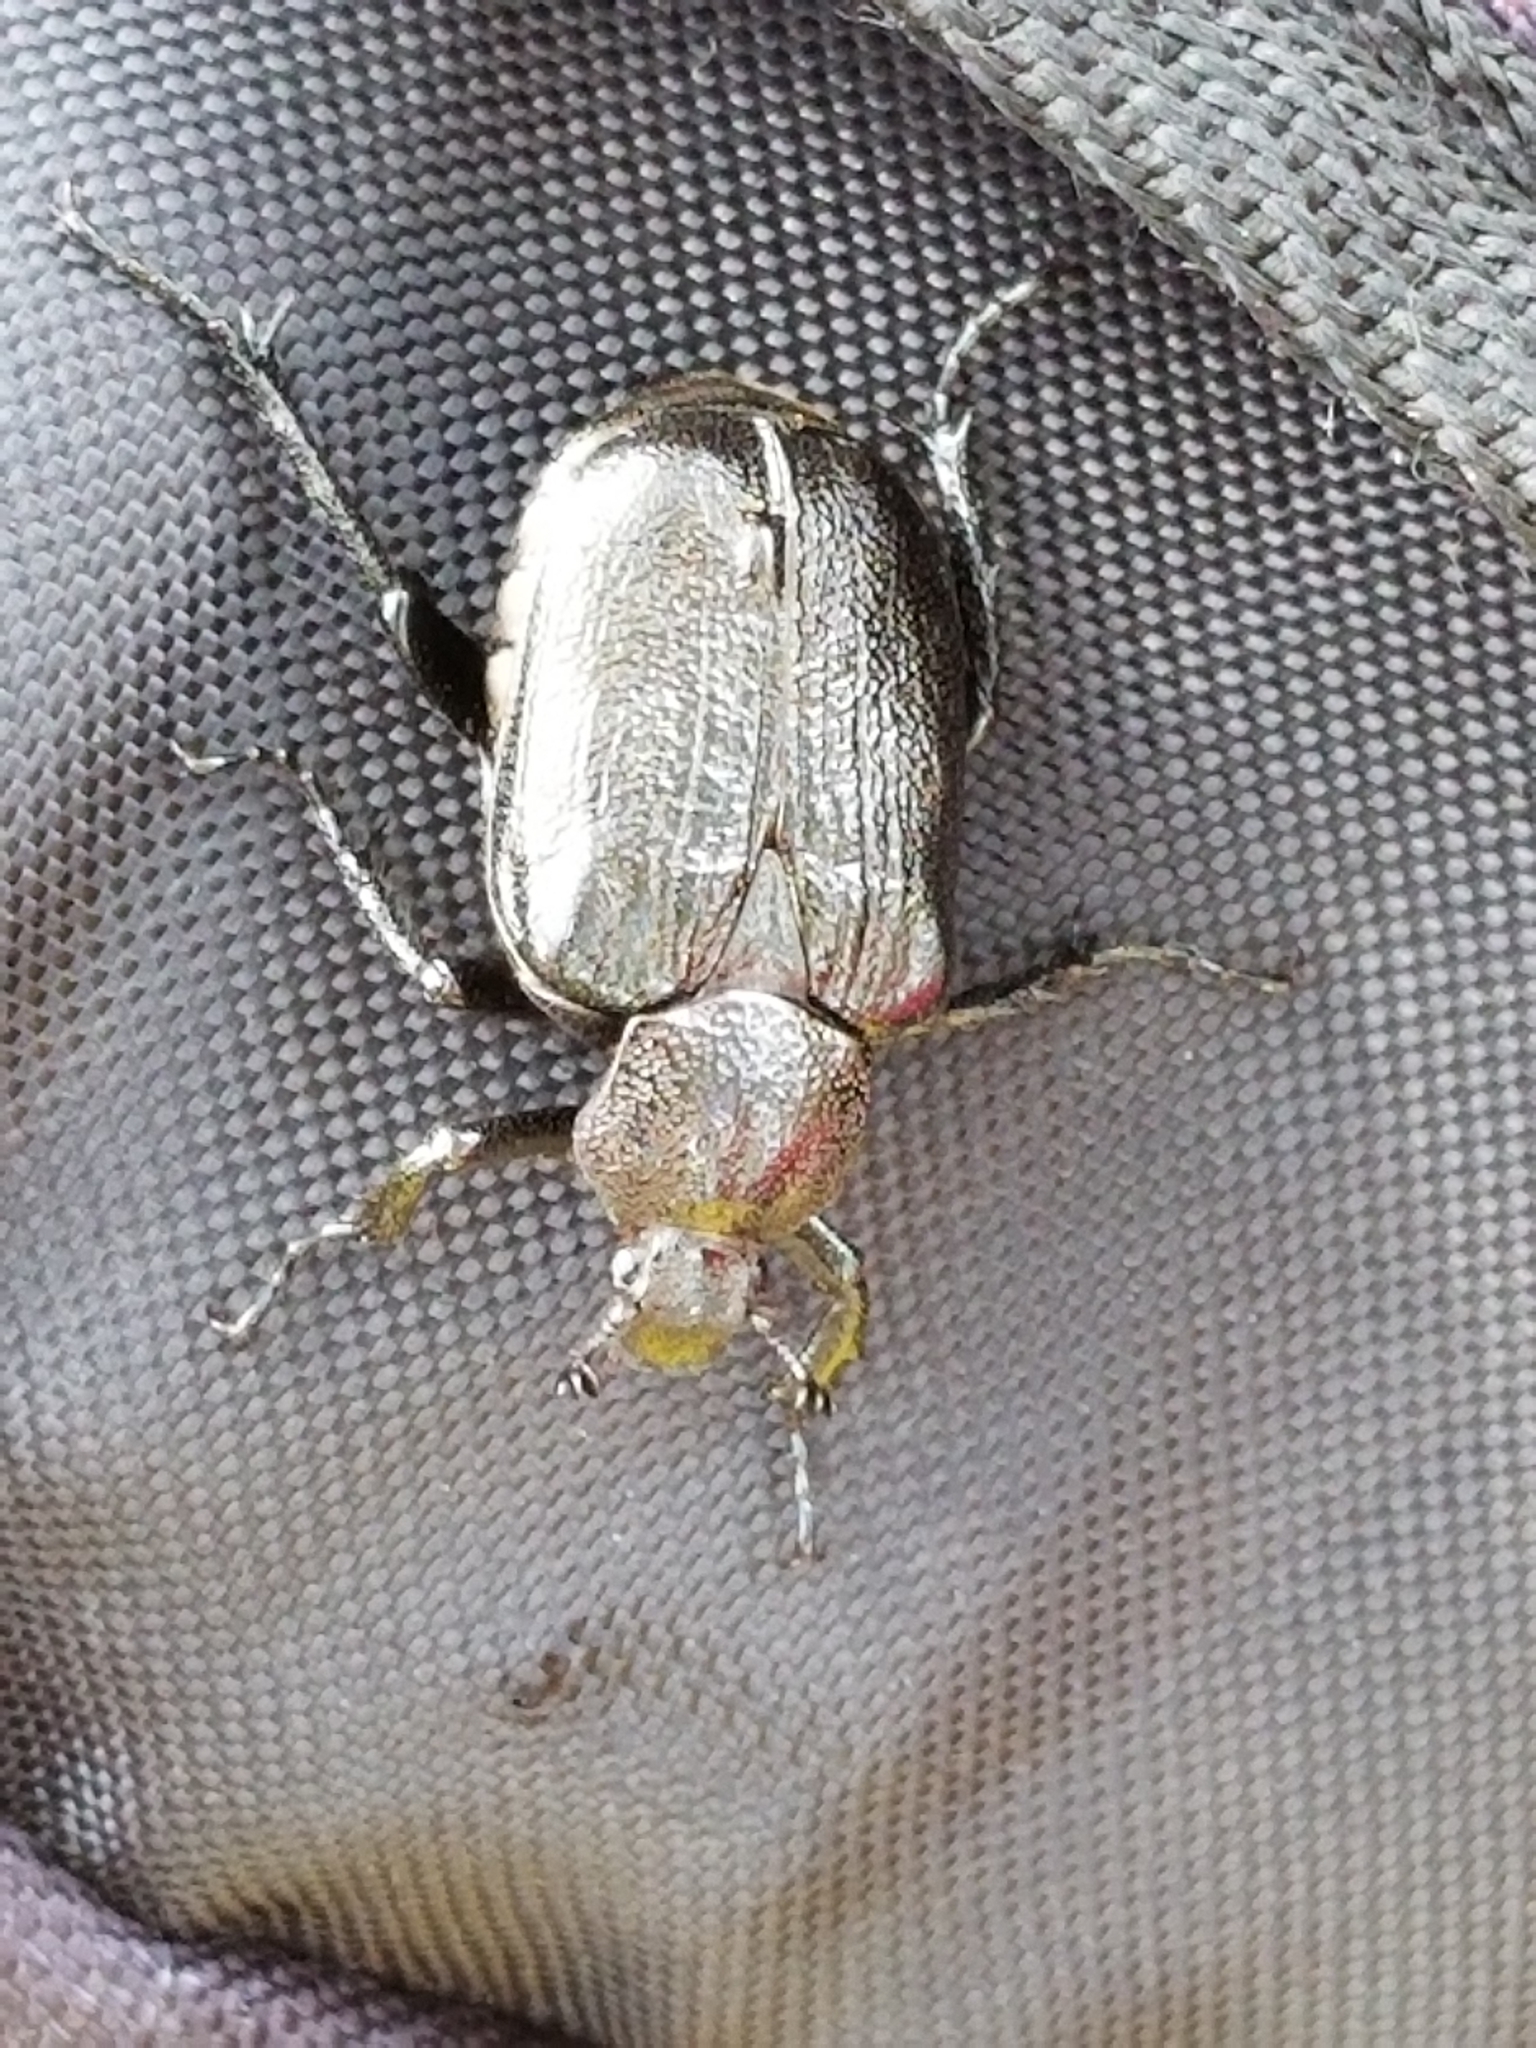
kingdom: Animalia
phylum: Arthropoda
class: Insecta
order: Coleoptera
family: Scarabaeidae
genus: Osmoderma
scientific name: Osmoderma scabra
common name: Rough hermit beetle
